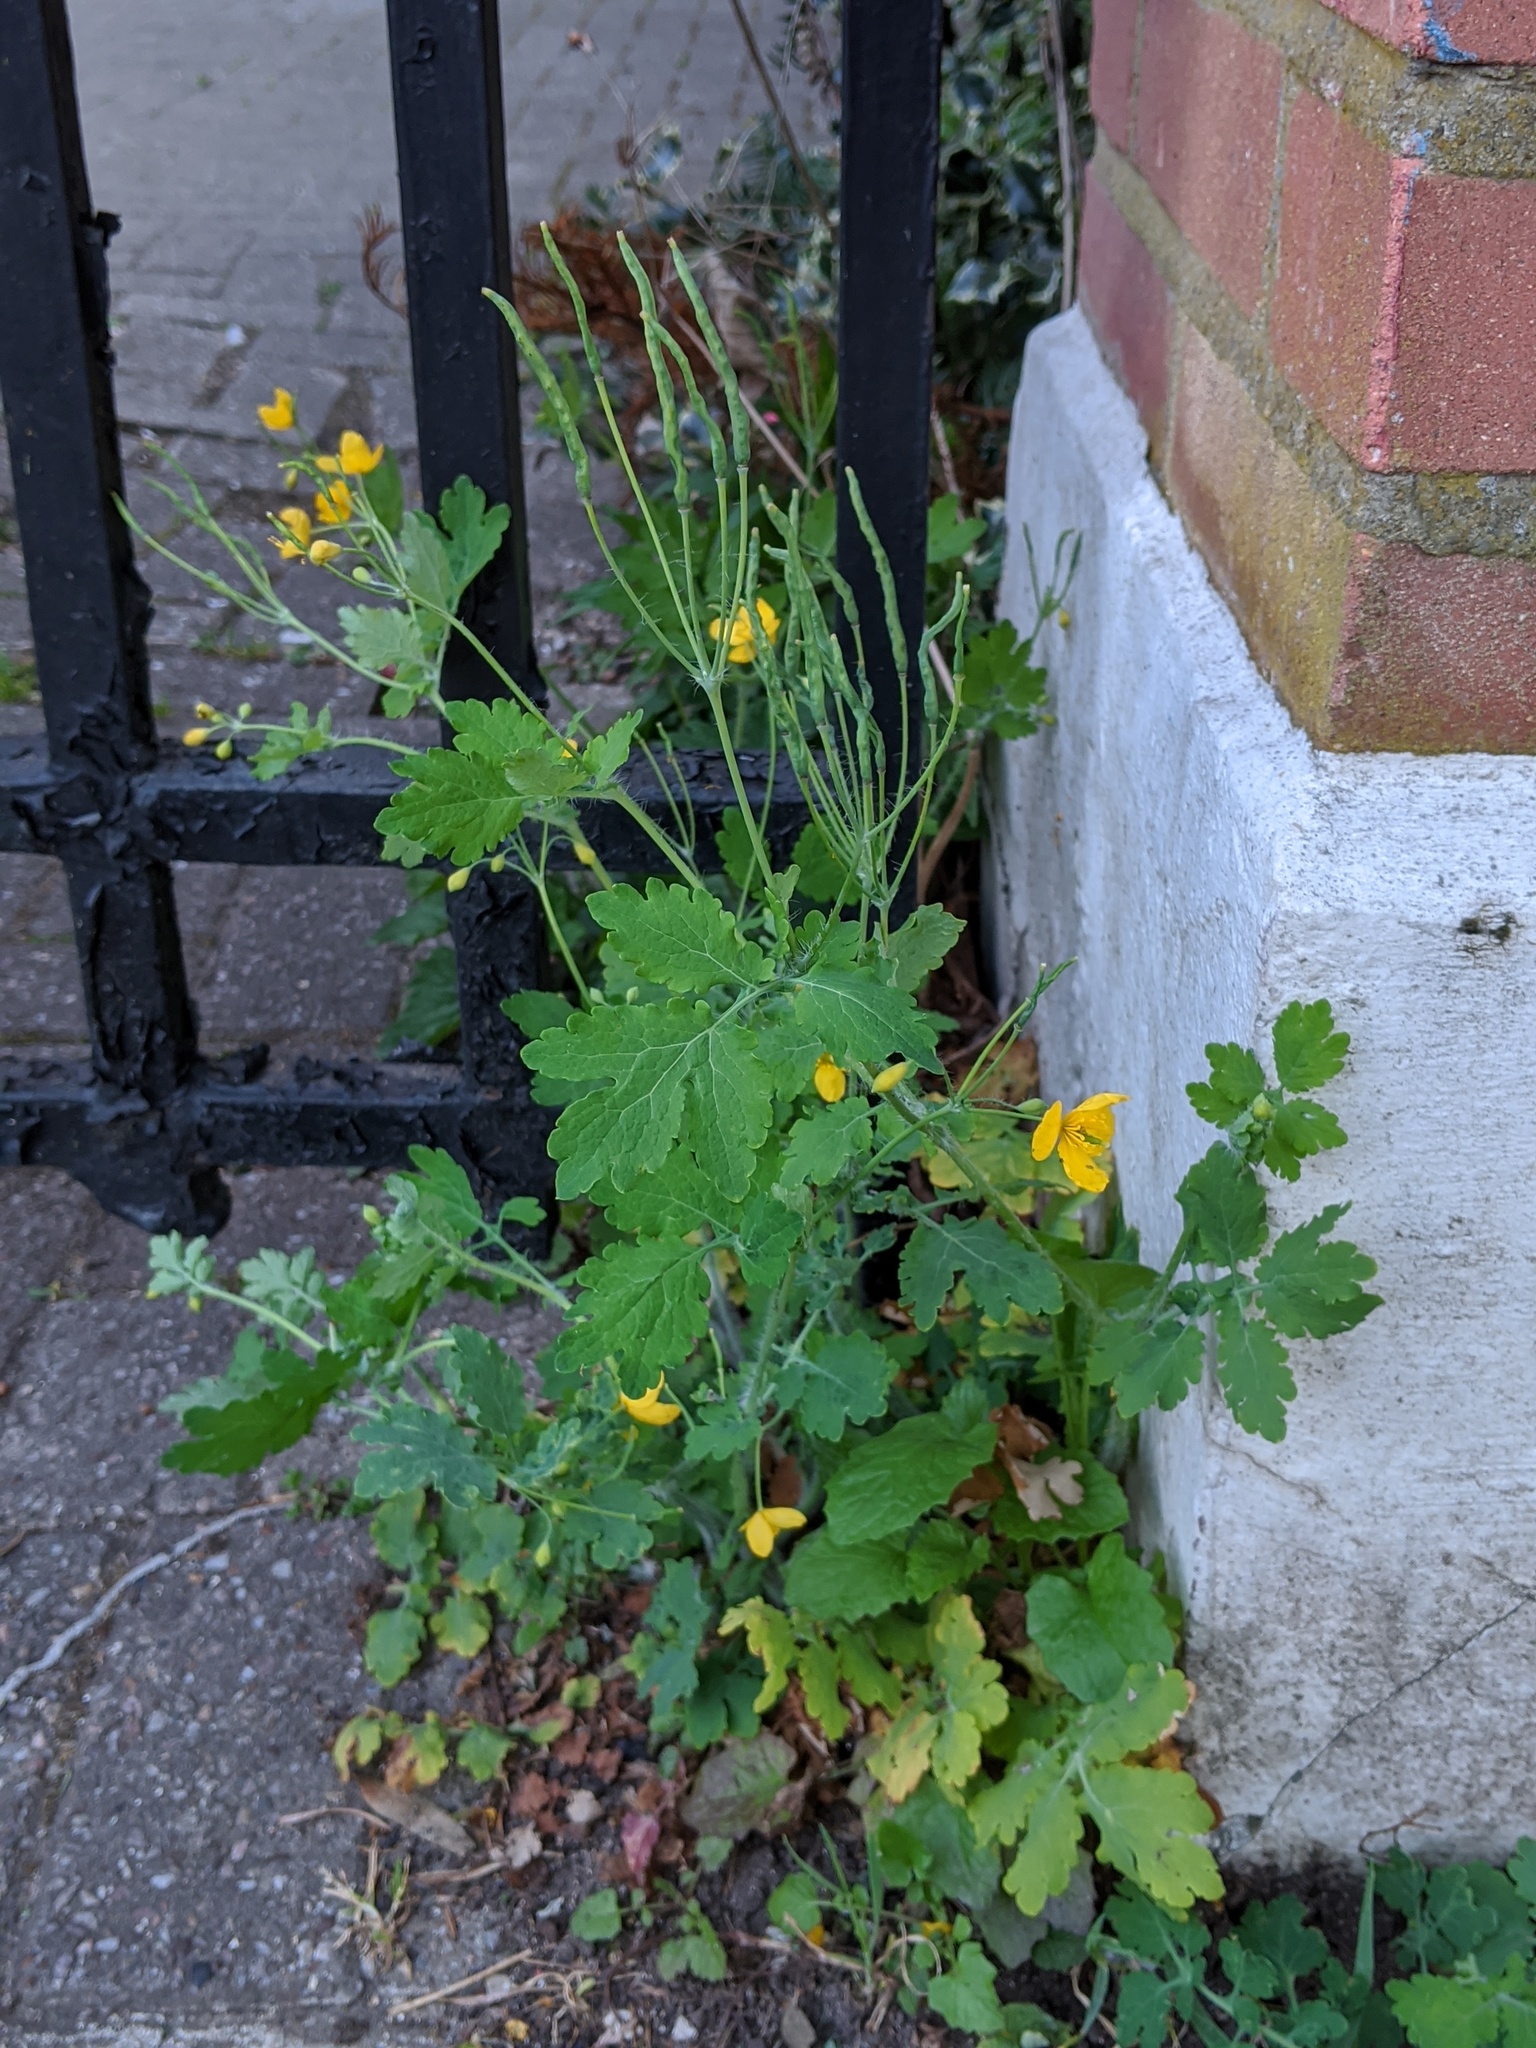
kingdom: Plantae
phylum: Tracheophyta
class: Magnoliopsida
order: Ranunculales
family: Papaveraceae
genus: Chelidonium
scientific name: Chelidonium majus
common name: Greater celandine
